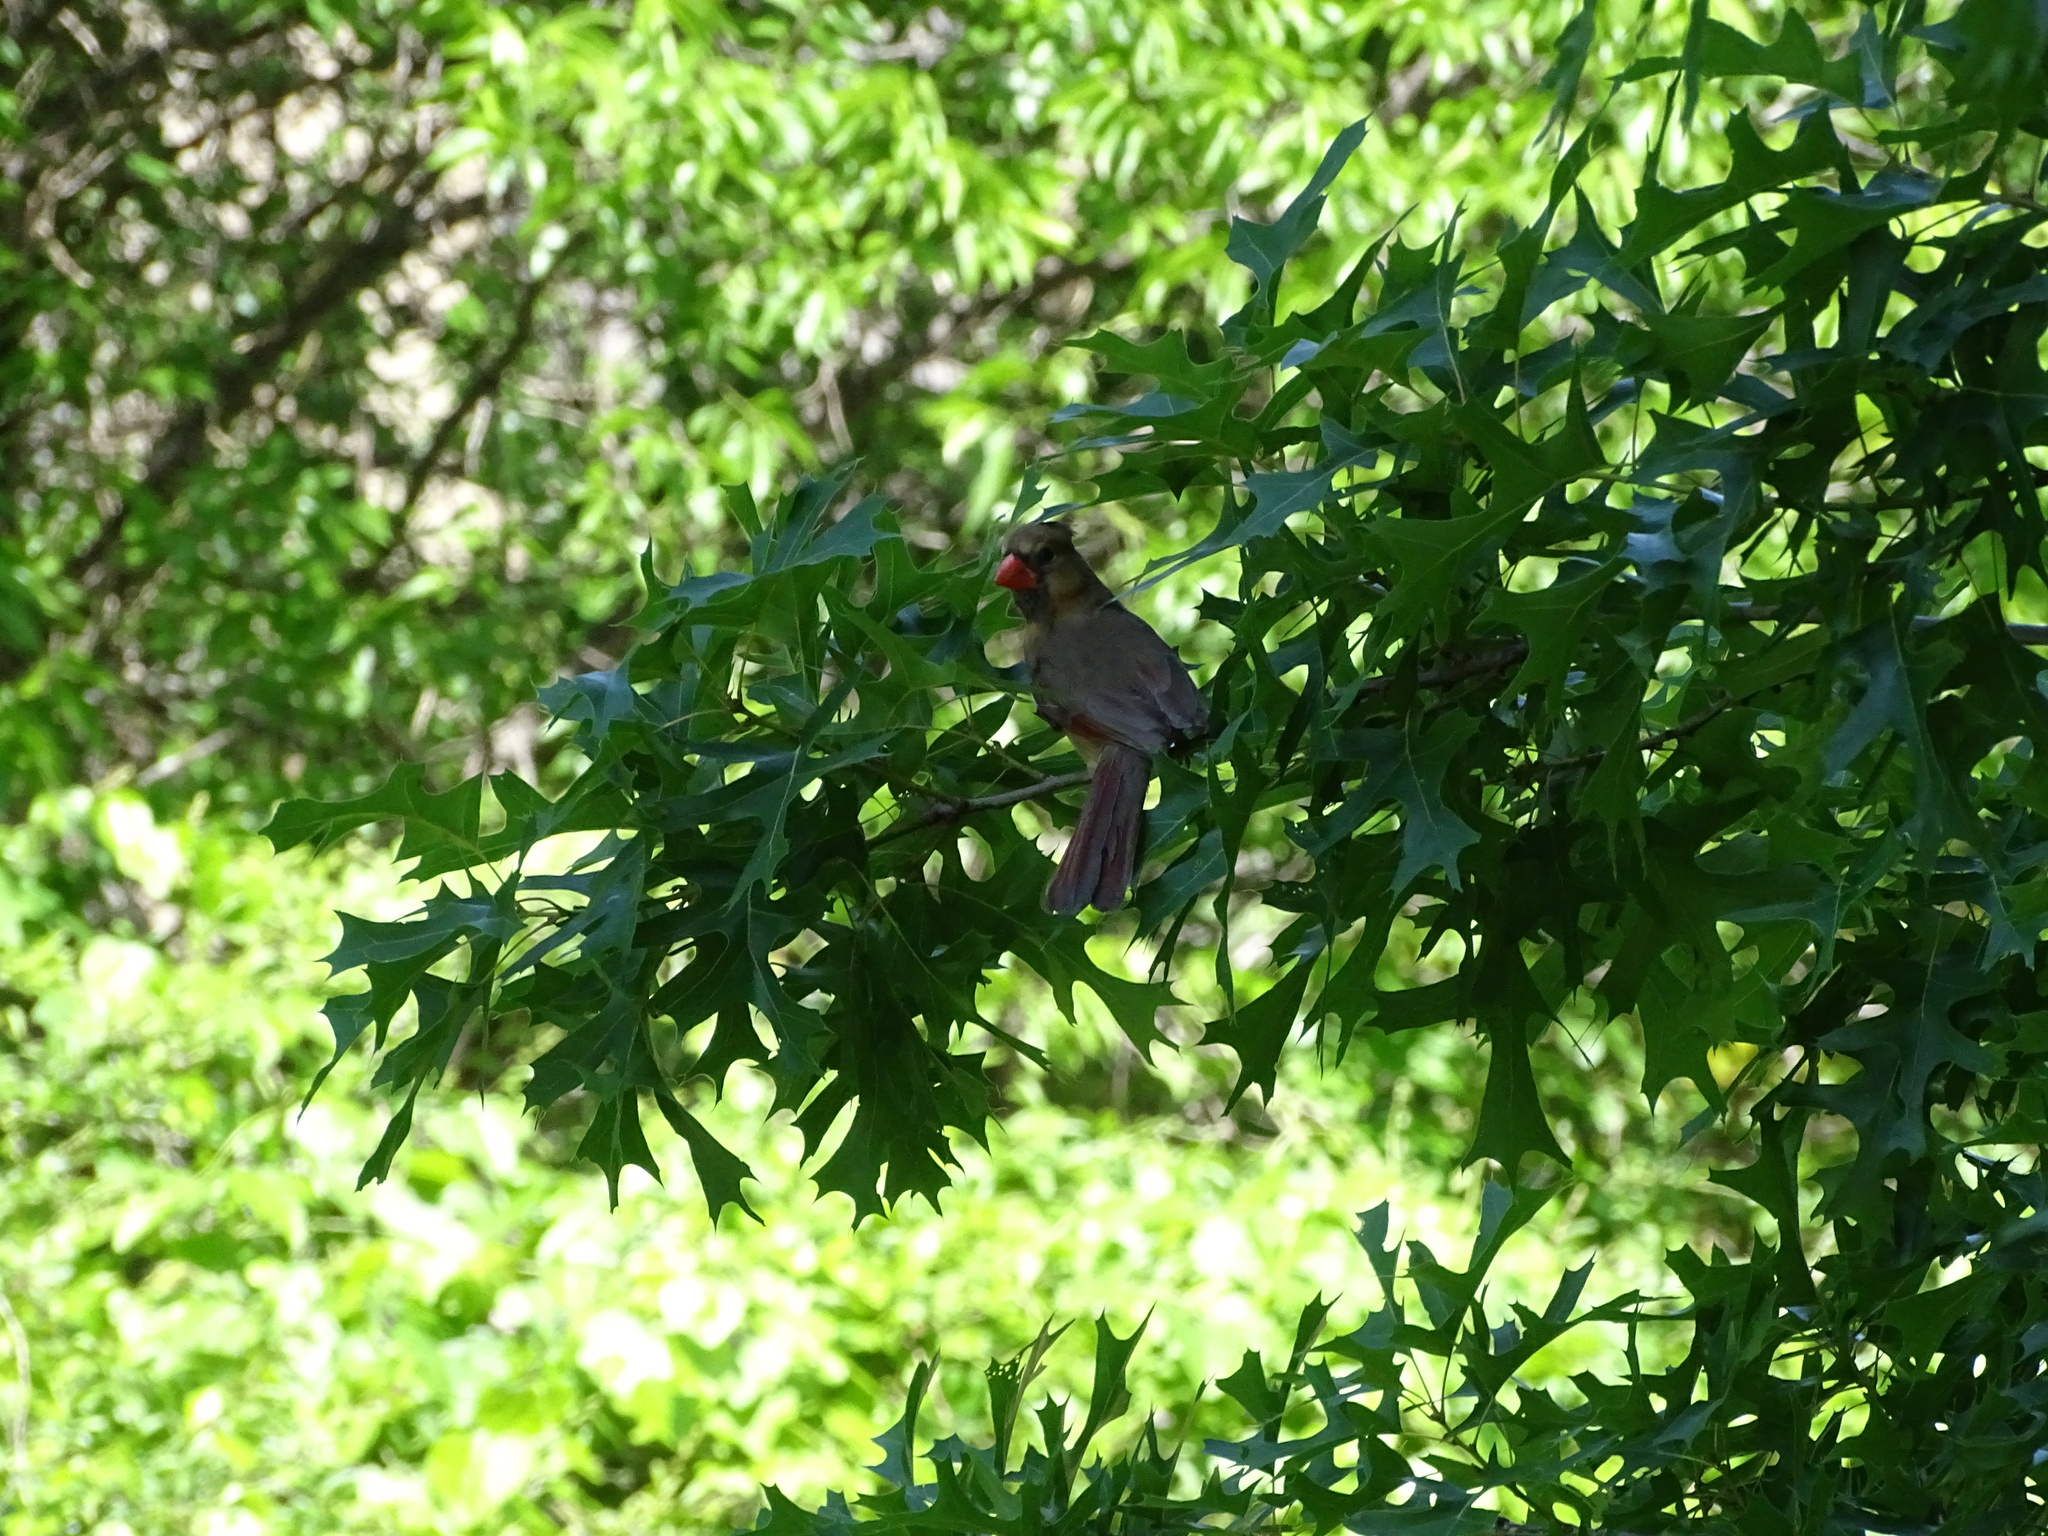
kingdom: Animalia
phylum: Chordata
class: Aves
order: Passeriformes
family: Cardinalidae
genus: Cardinalis
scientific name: Cardinalis cardinalis
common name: Northern cardinal
